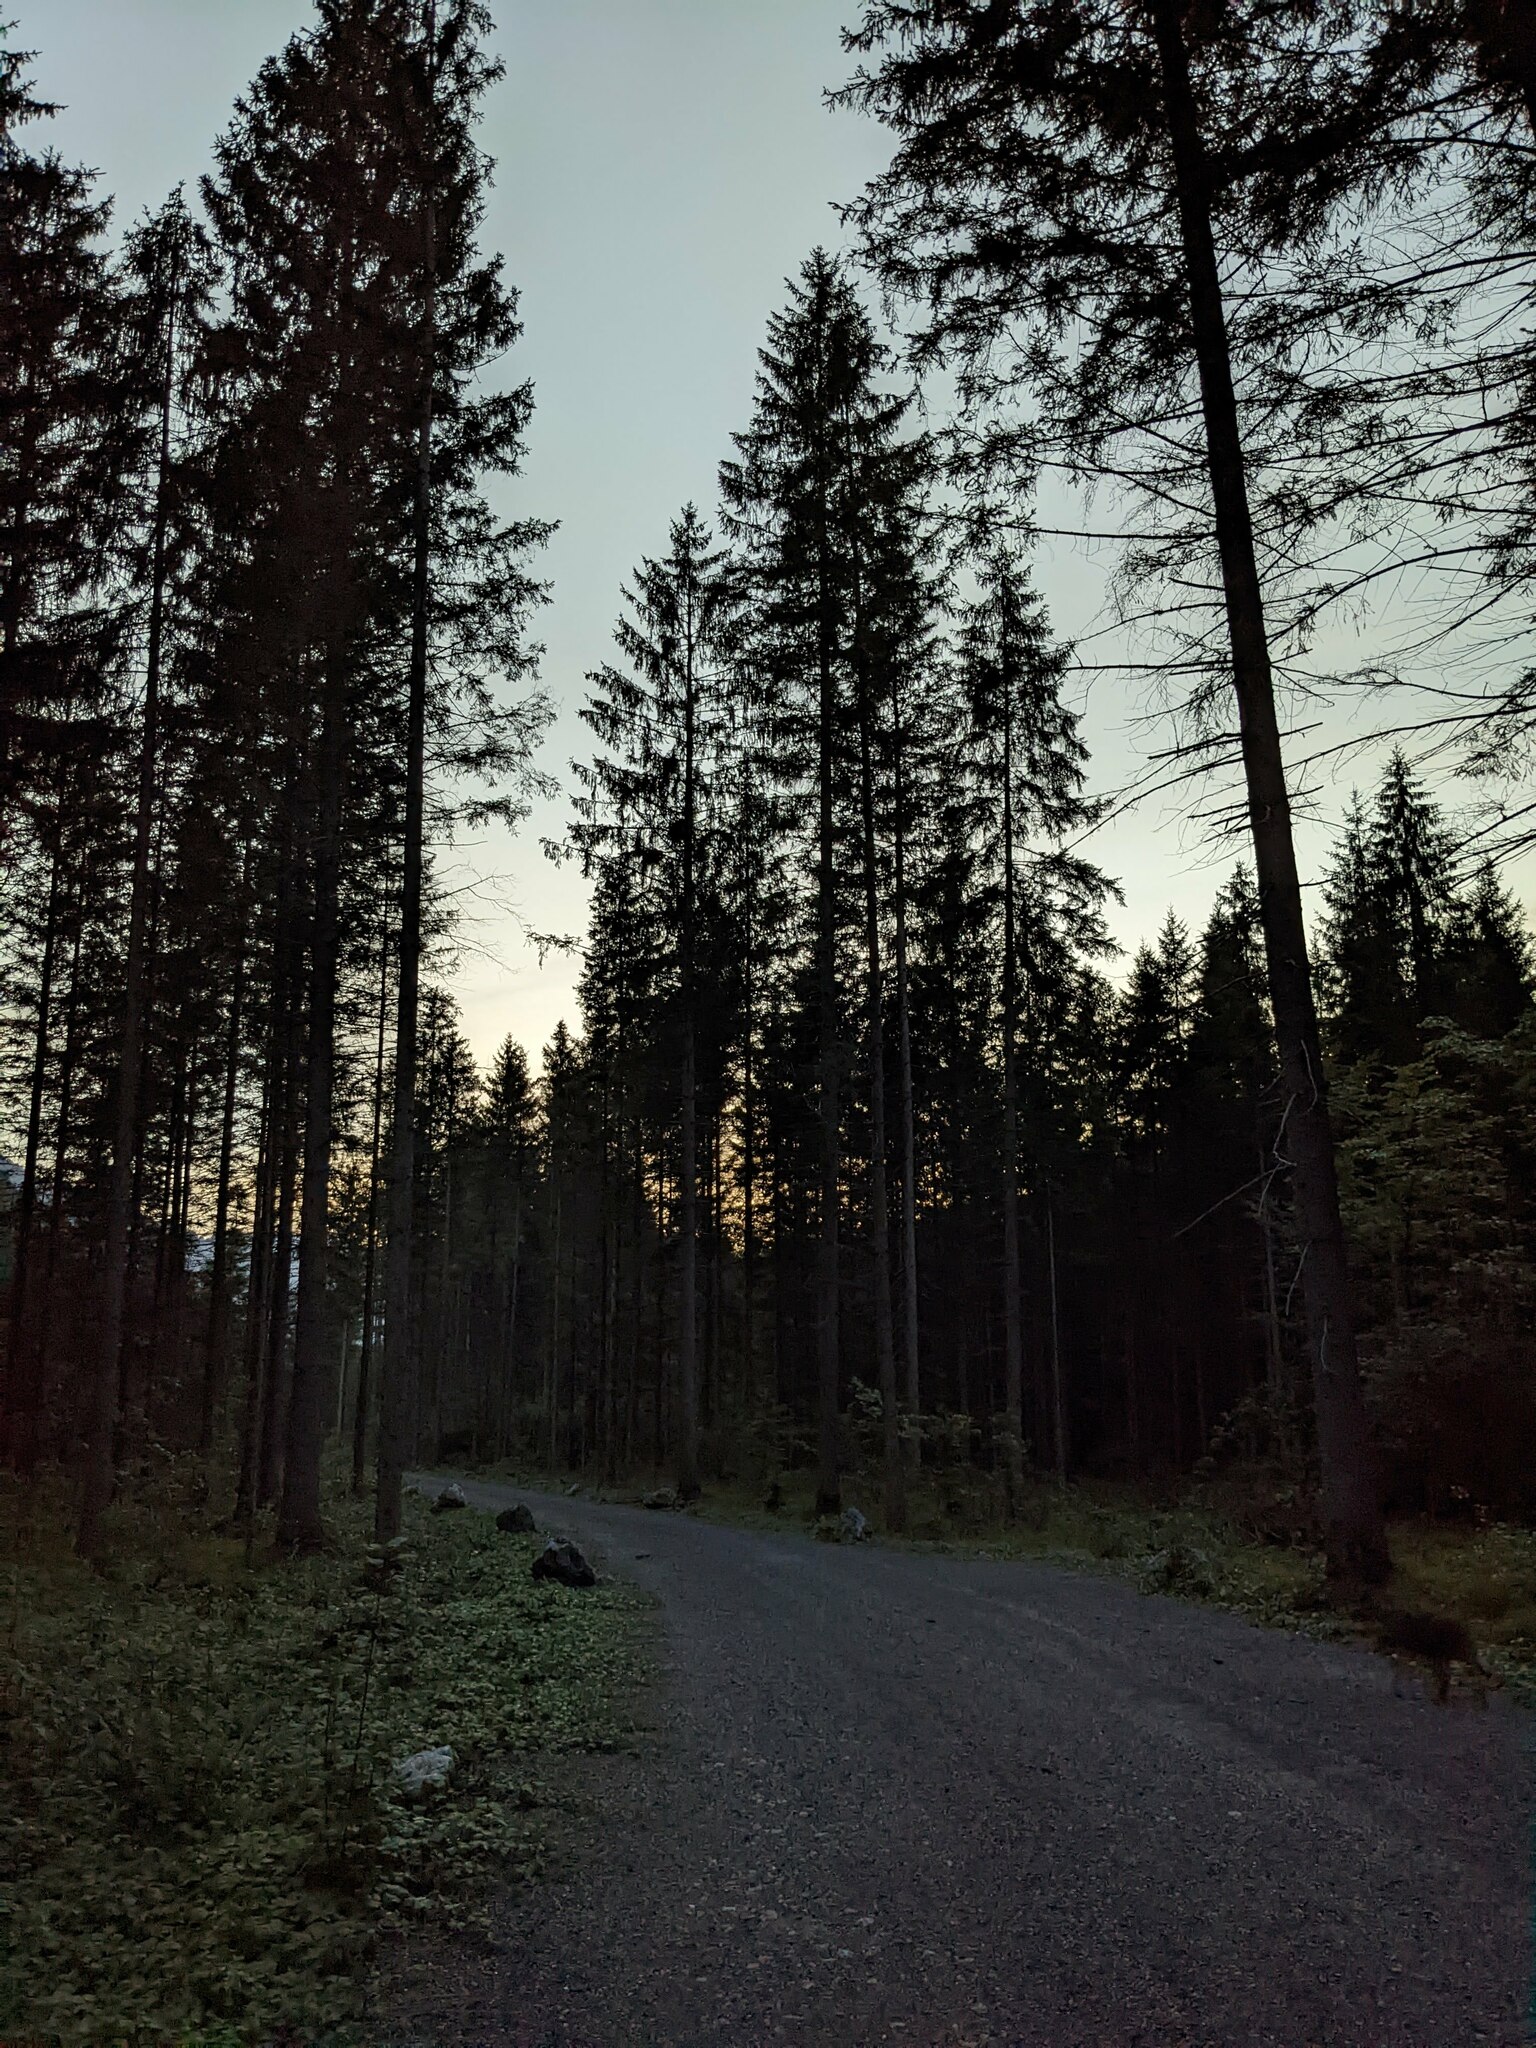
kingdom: Plantae
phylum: Tracheophyta
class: Pinopsida
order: Pinales
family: Pinaceae
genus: Picea
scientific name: Picea abies
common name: Norway spruce
